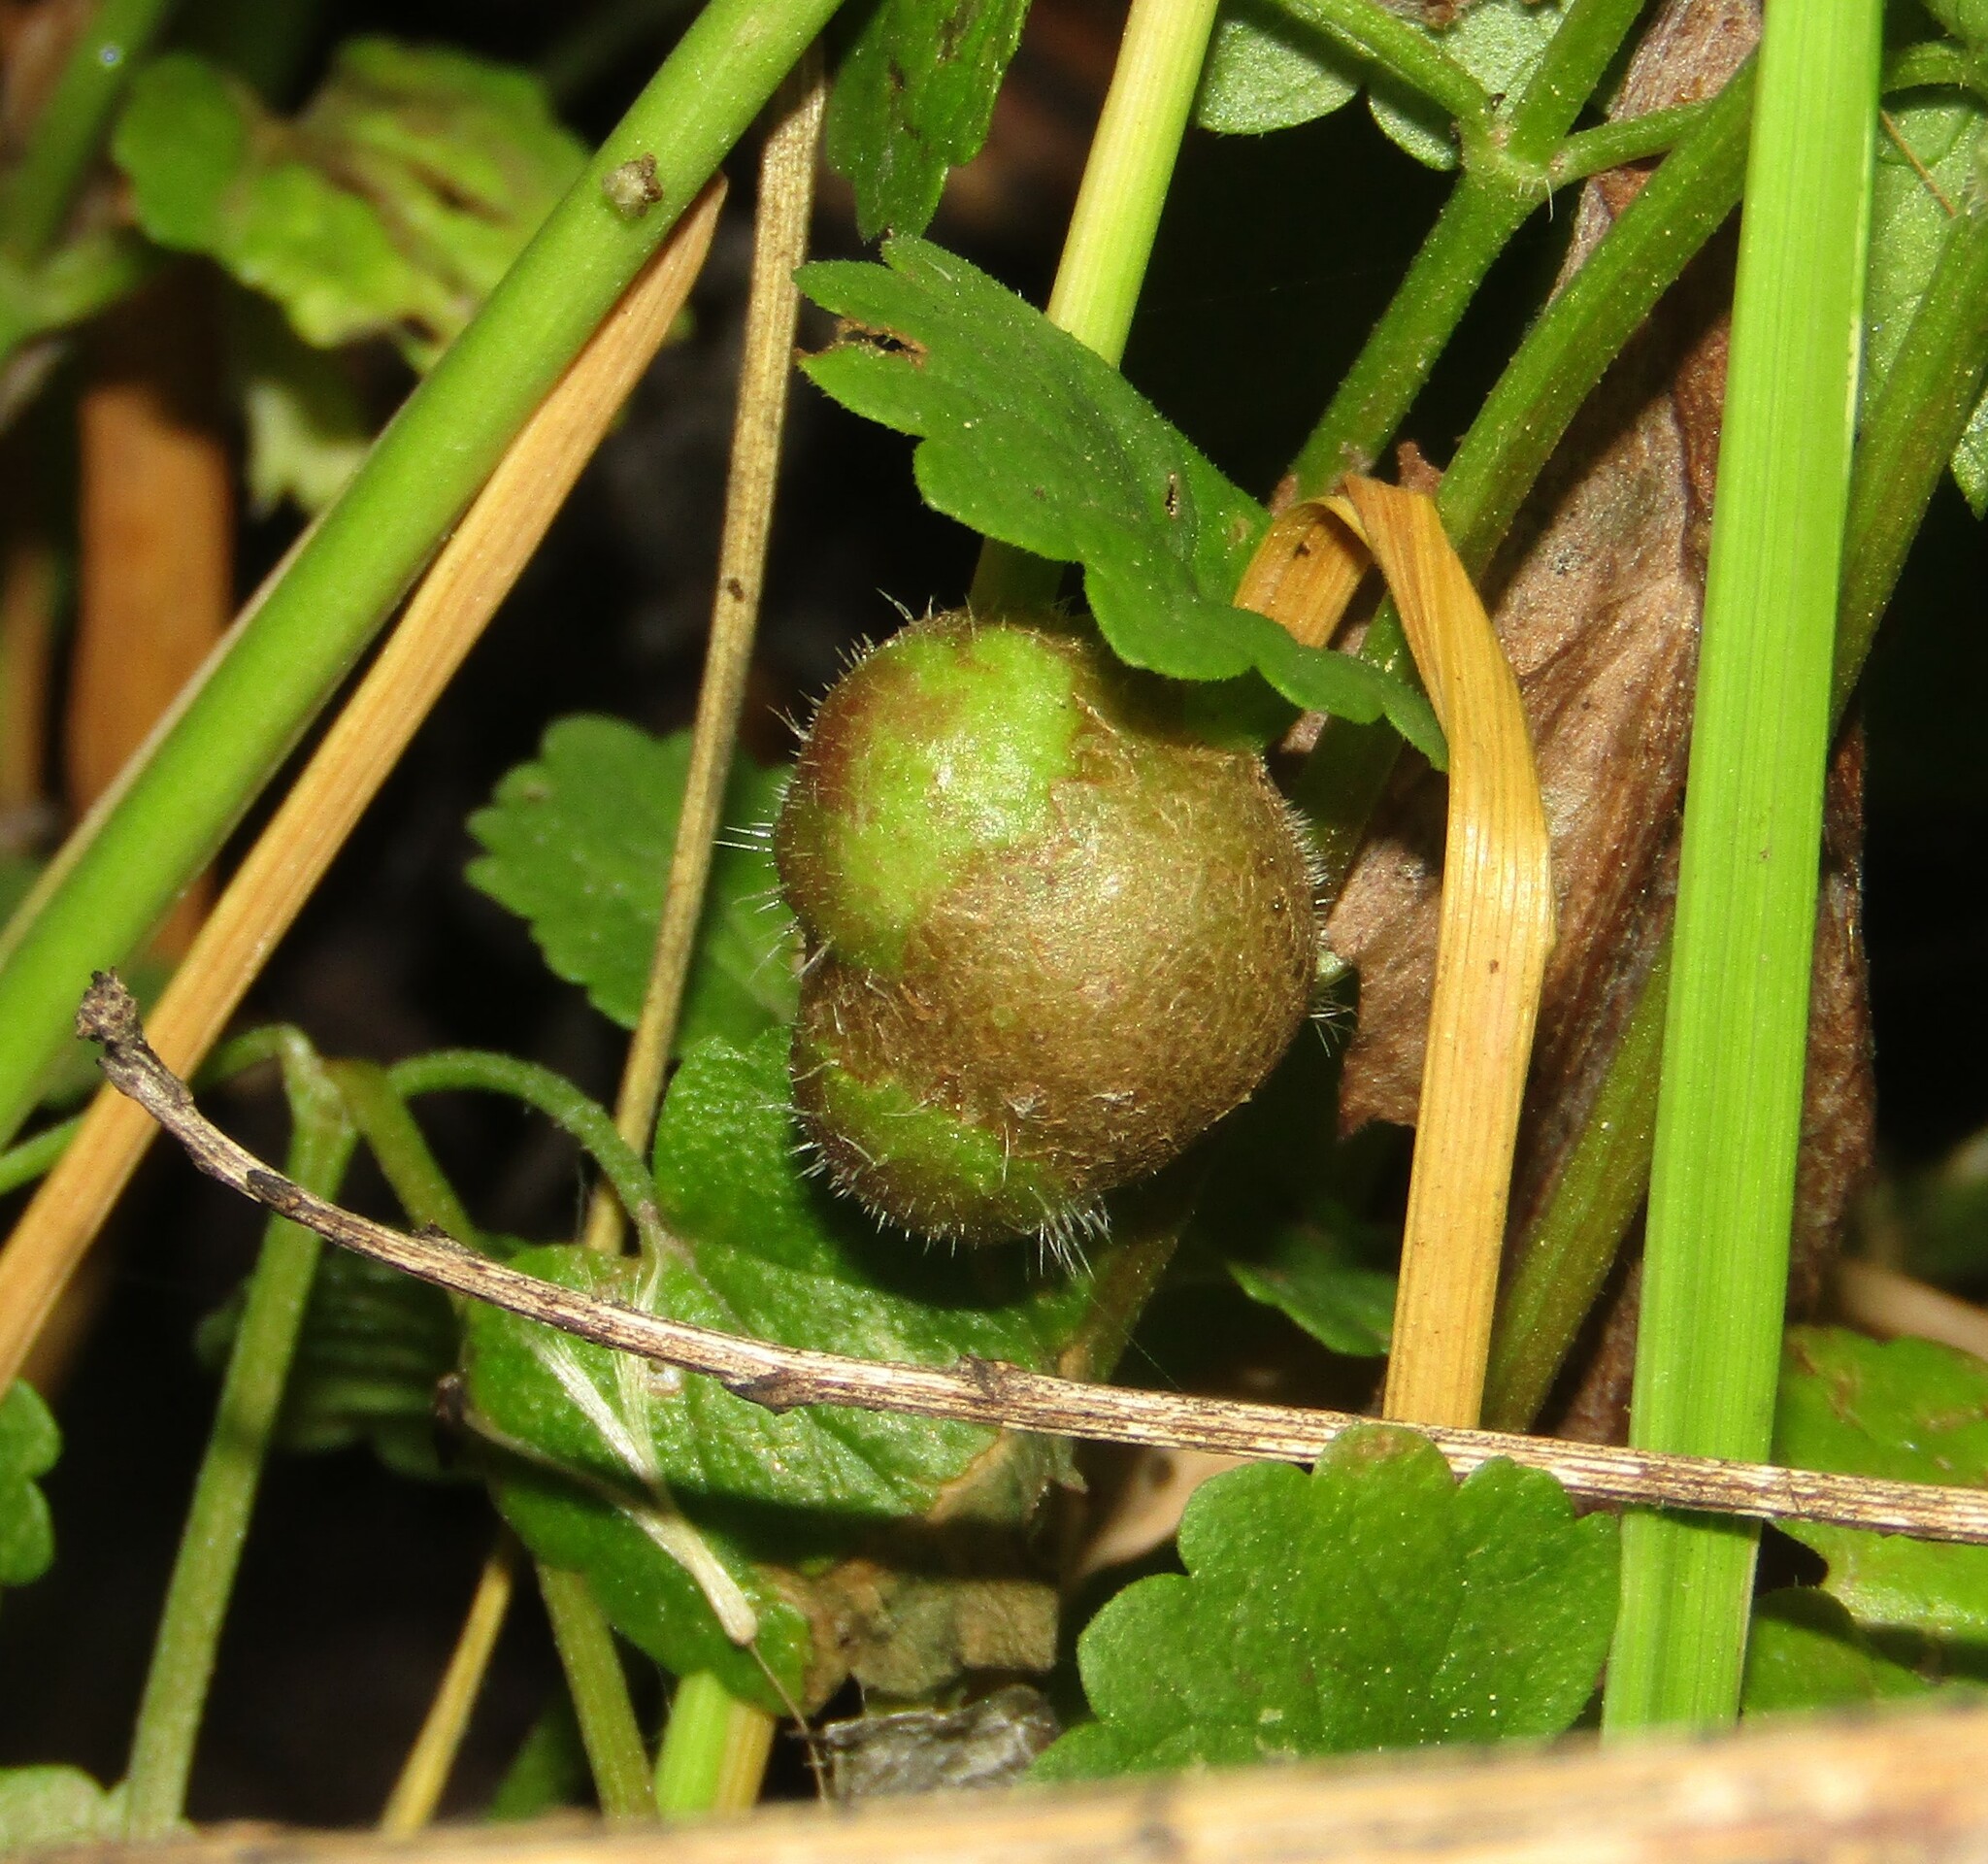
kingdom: Animalia
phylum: Arthropoda
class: Insecta
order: Hymenoptera
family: Cynipidae
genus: Liposthenes
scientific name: Liposthenes glechomae
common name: Gall wasp
